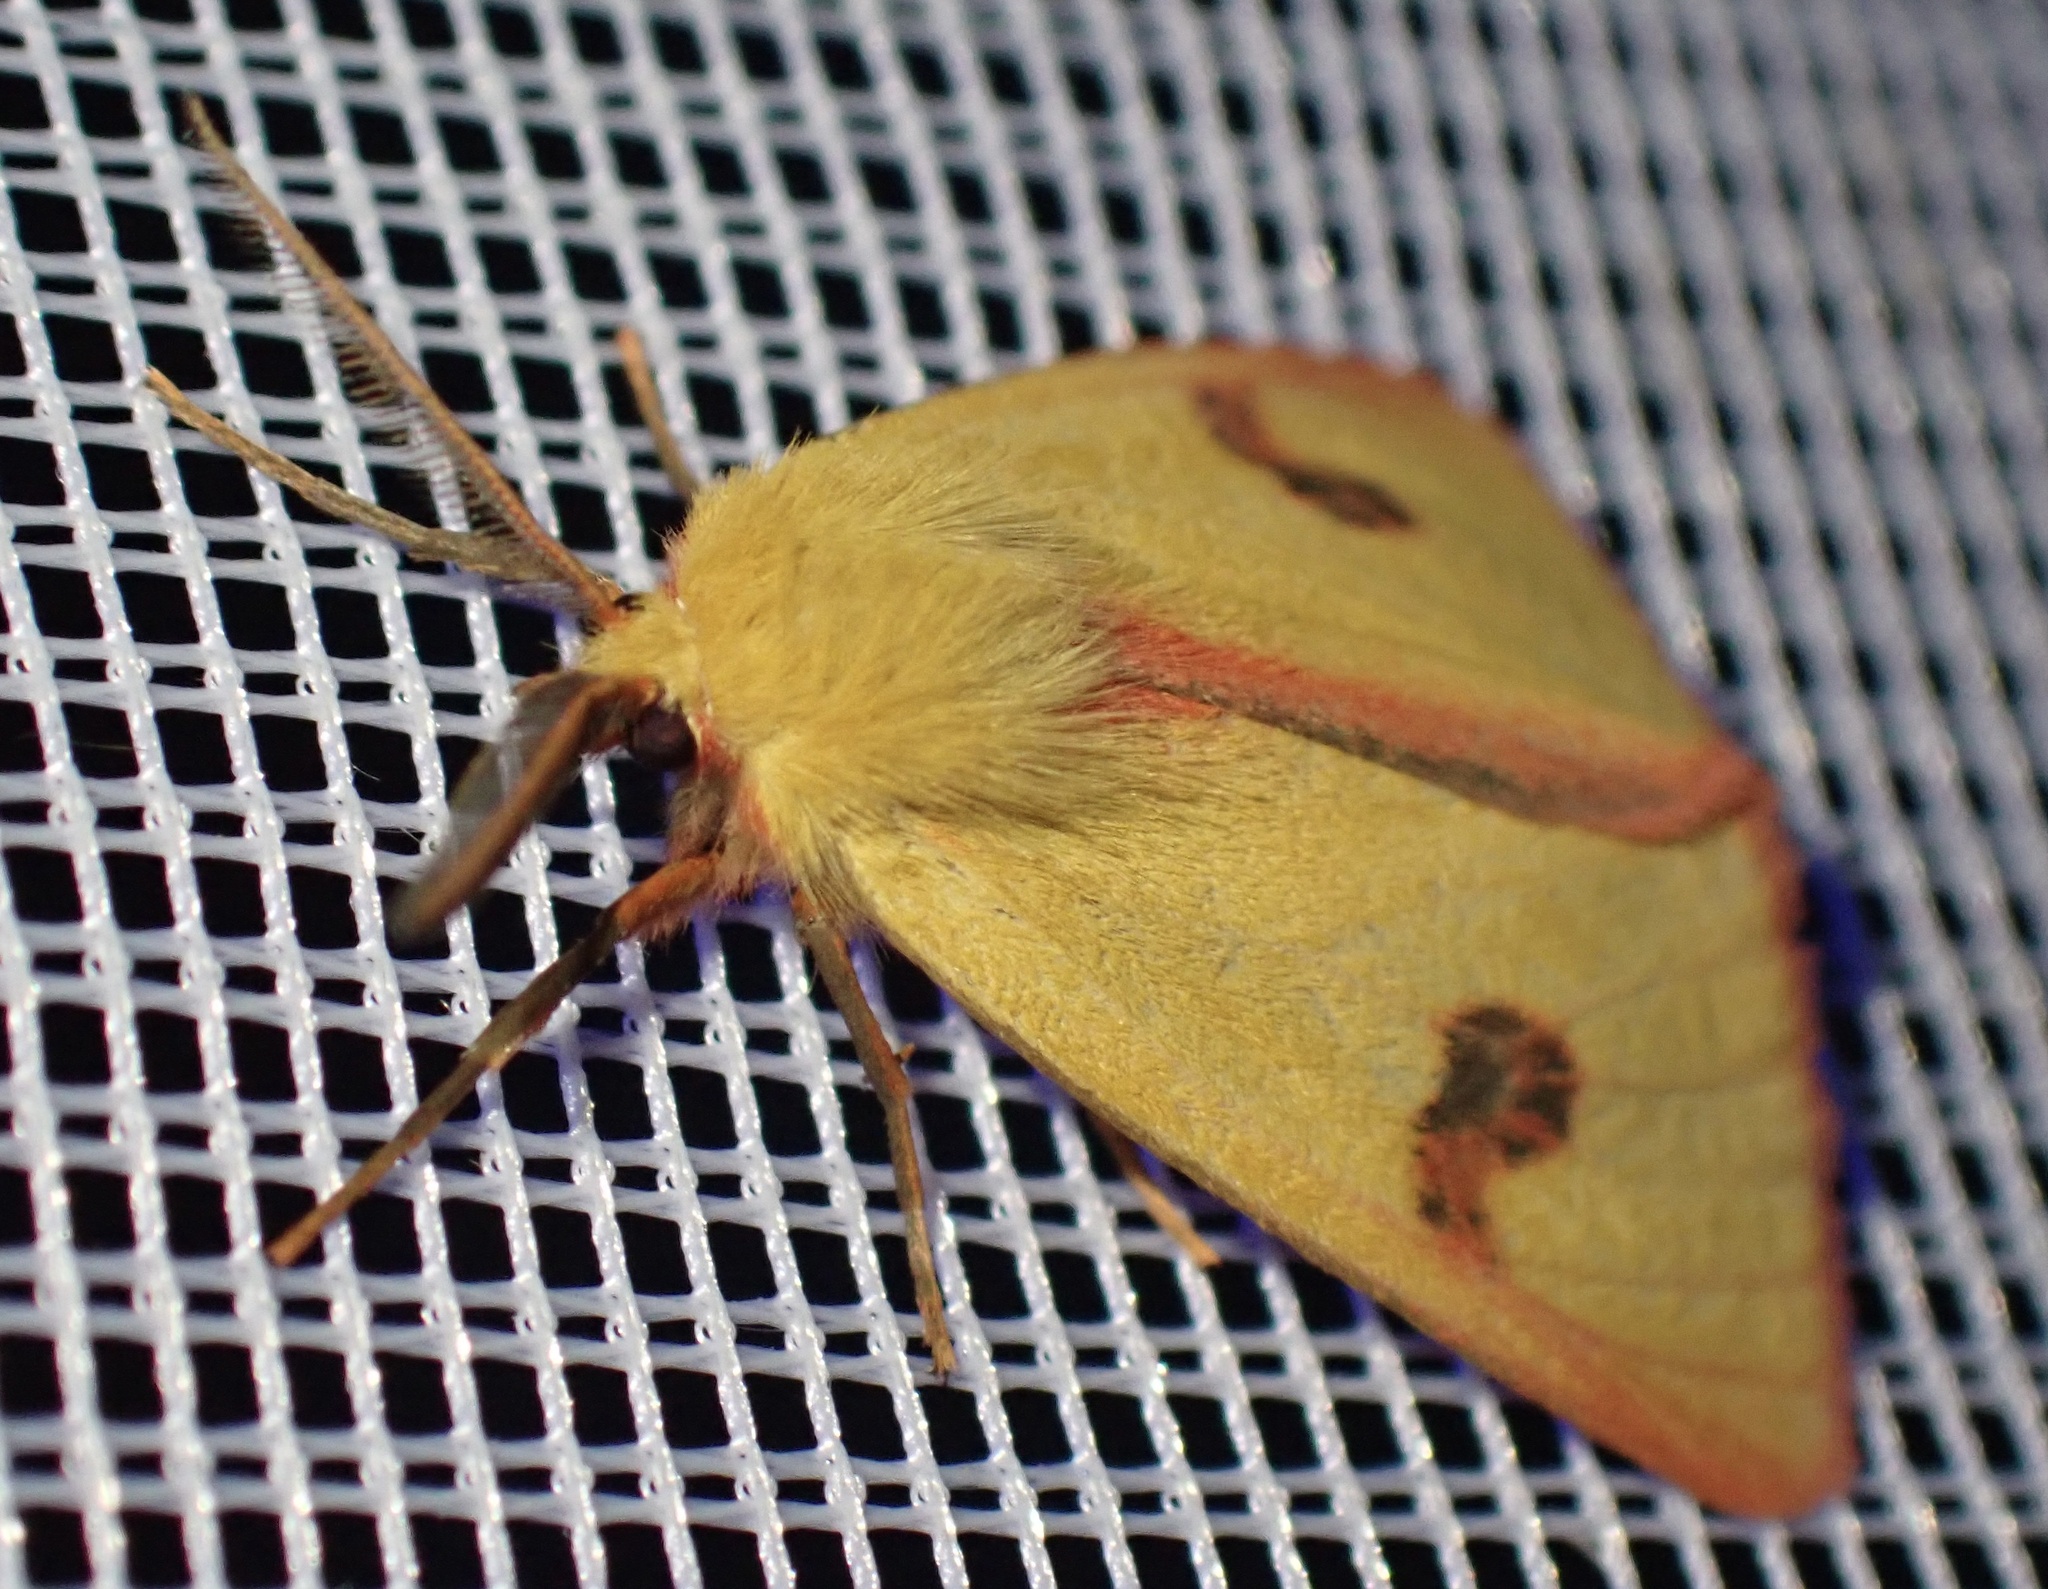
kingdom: Animalia
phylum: Arthropoda
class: Insecta
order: Lepidoptera
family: Erebidae
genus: Diacrisia
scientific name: Diacrisia sannio
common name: Clouded buff
